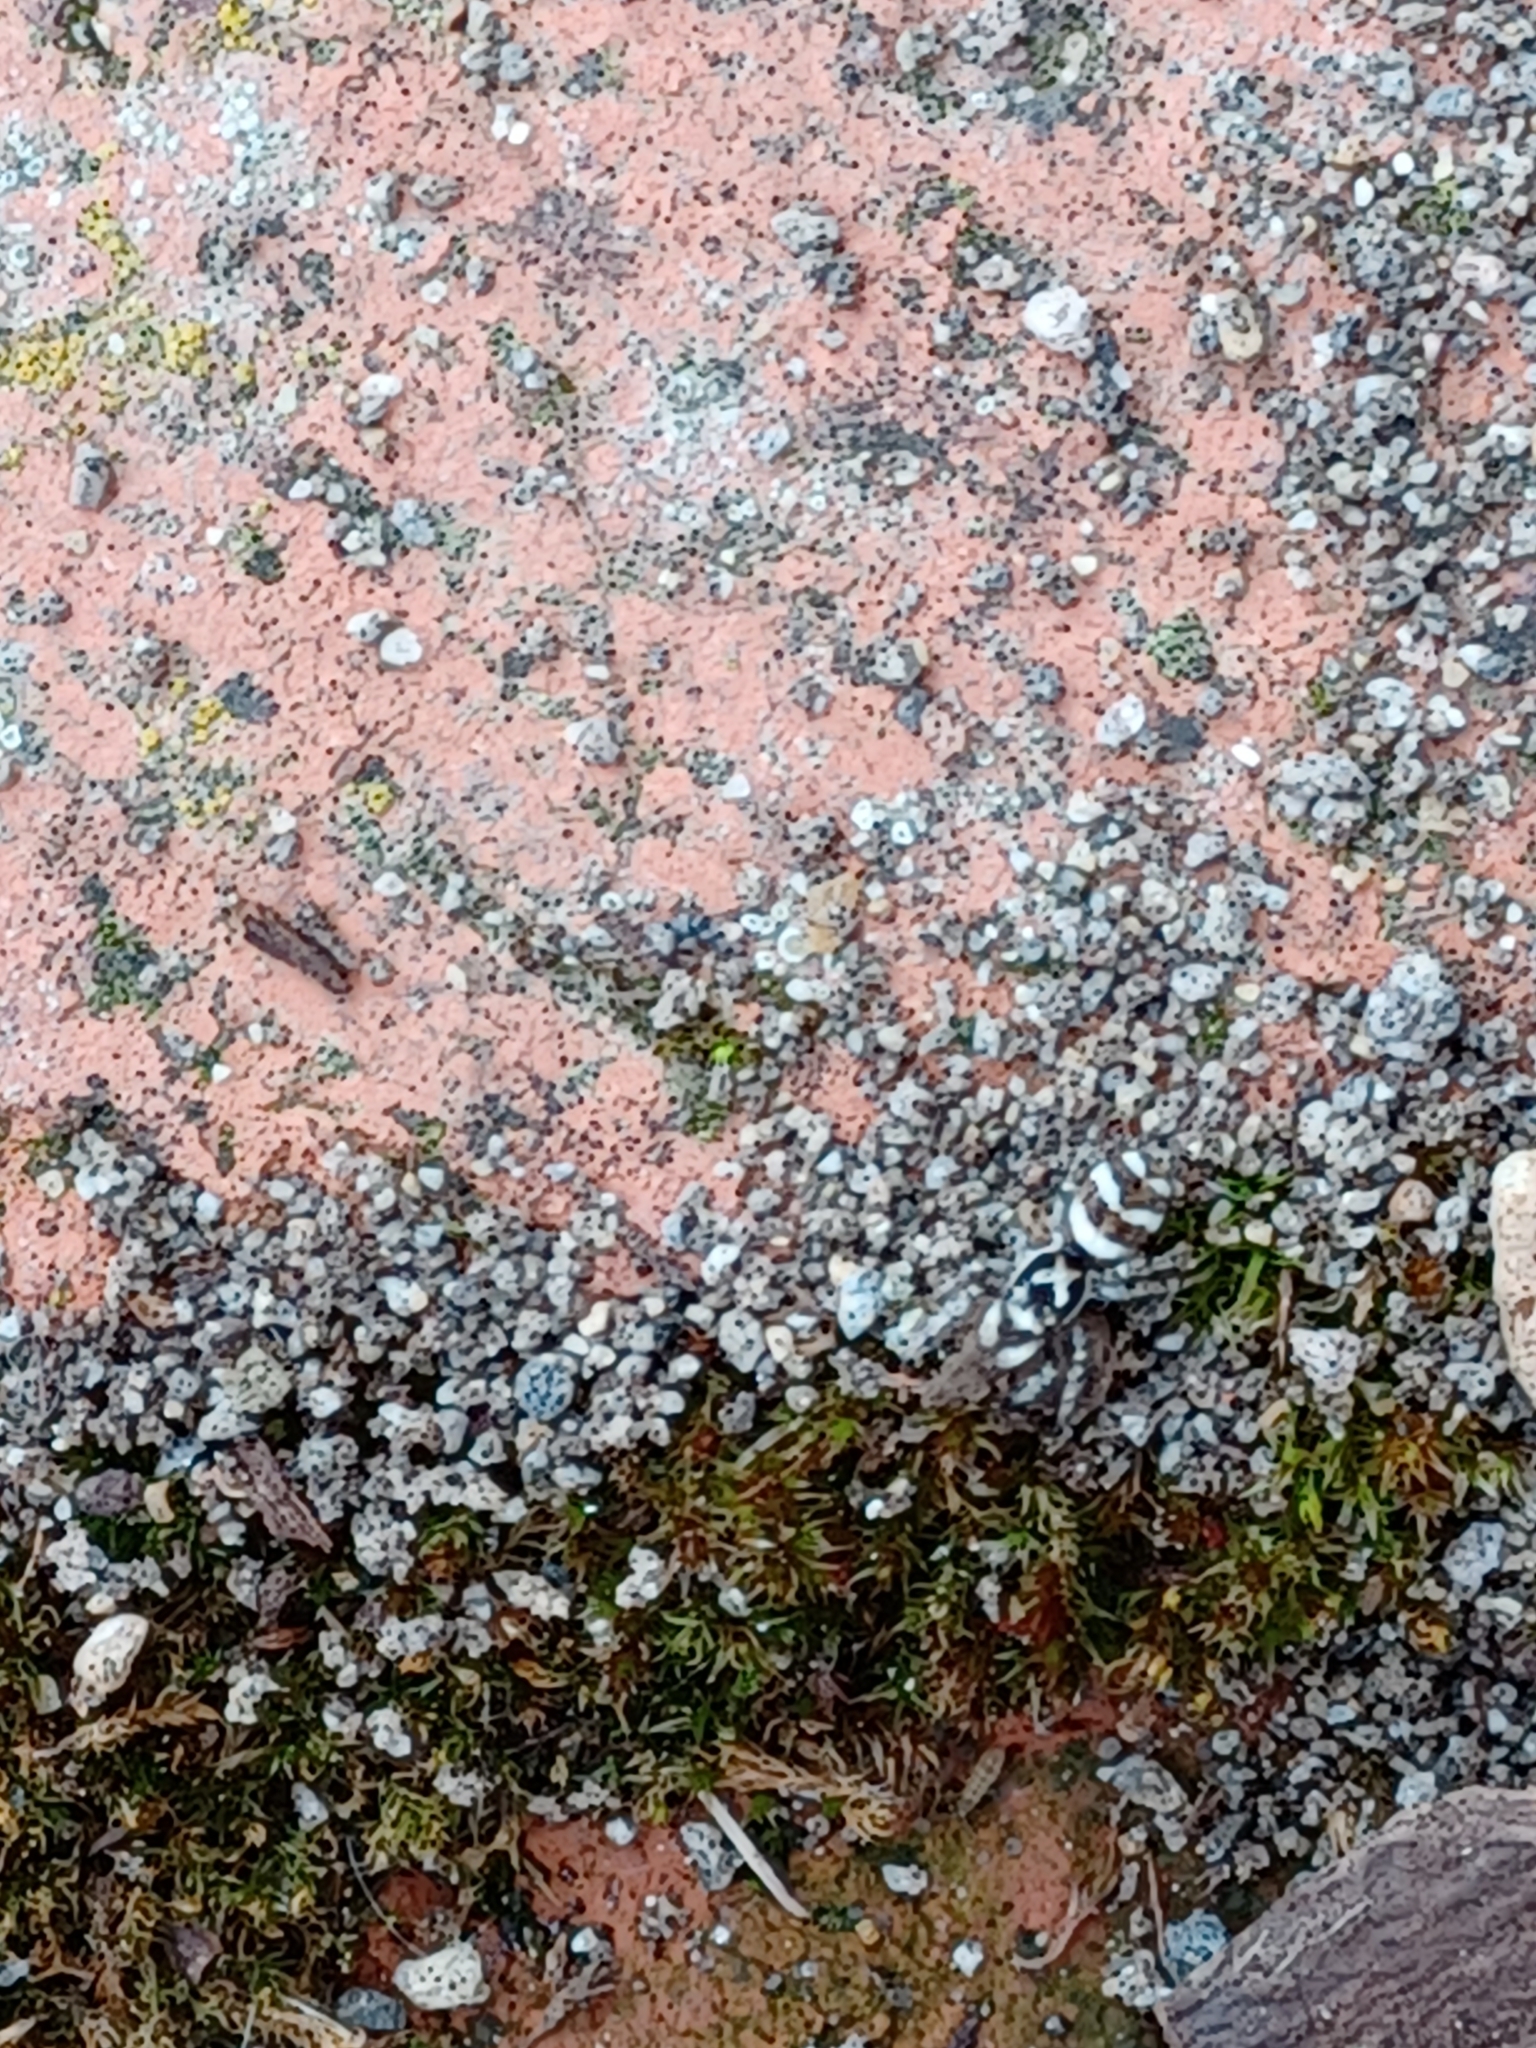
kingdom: Animalia
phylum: Arthropoda
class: Arachnida
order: Araneae
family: Salticidae
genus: Salticus
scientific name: Salticus scenicus
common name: Zebra jumper
